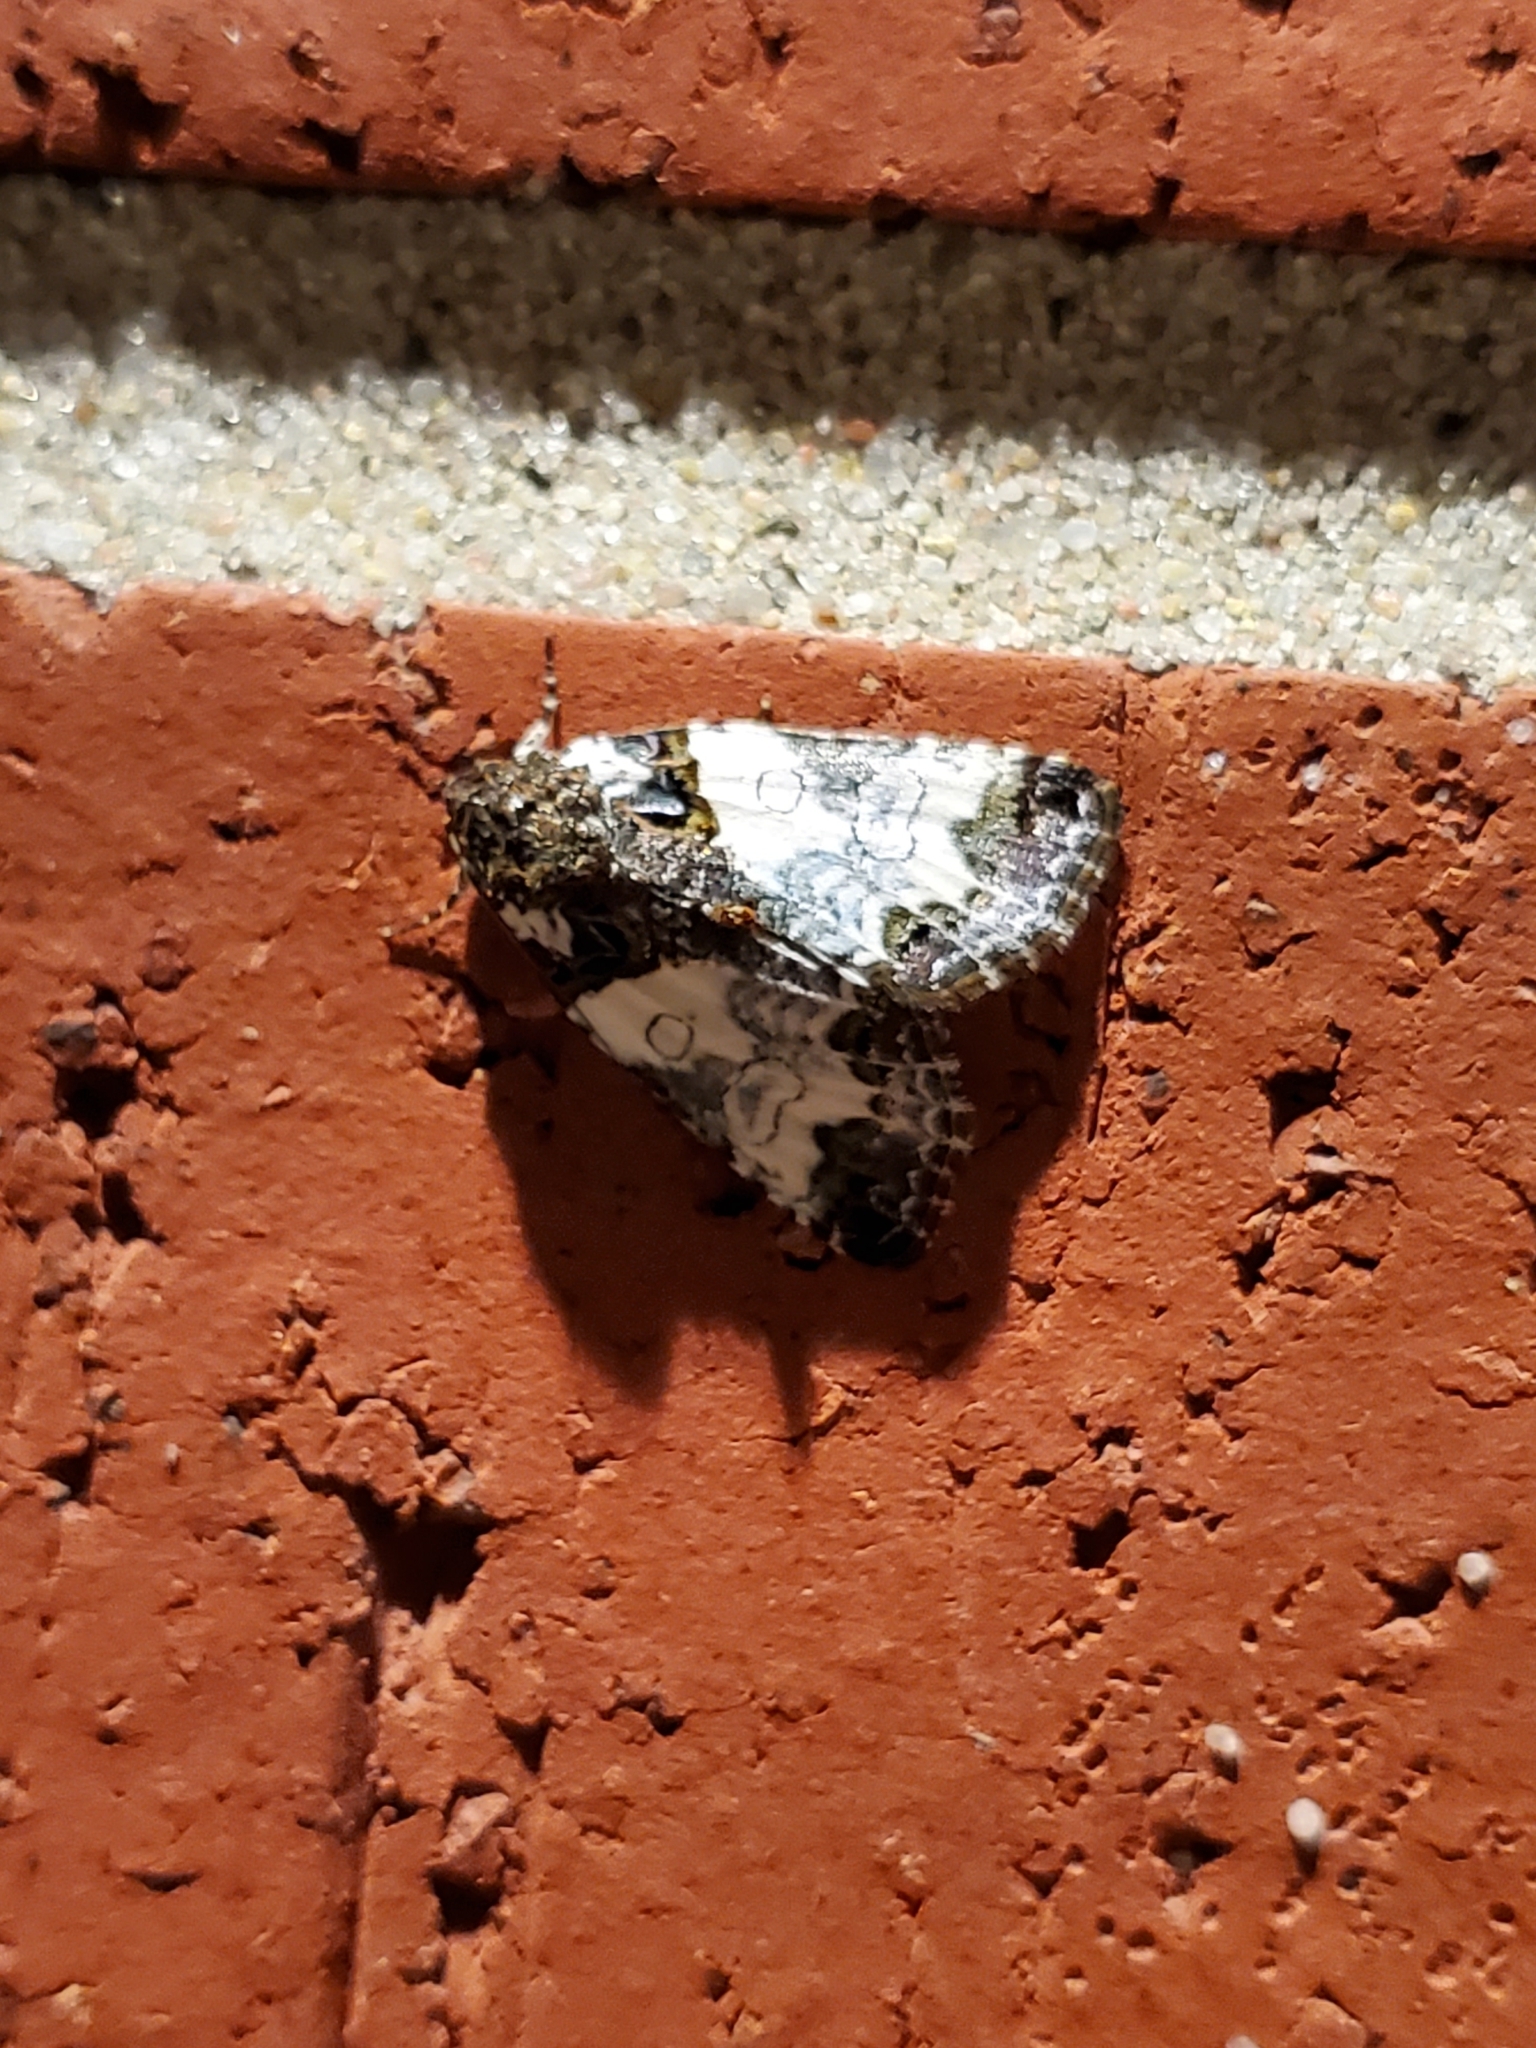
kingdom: Animalia
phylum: Arthropoda
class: Insecta
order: Lepidoptera
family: Noctuidae
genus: Cerma
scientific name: Cerma cerintha
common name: Tufted bird-dropping moth
